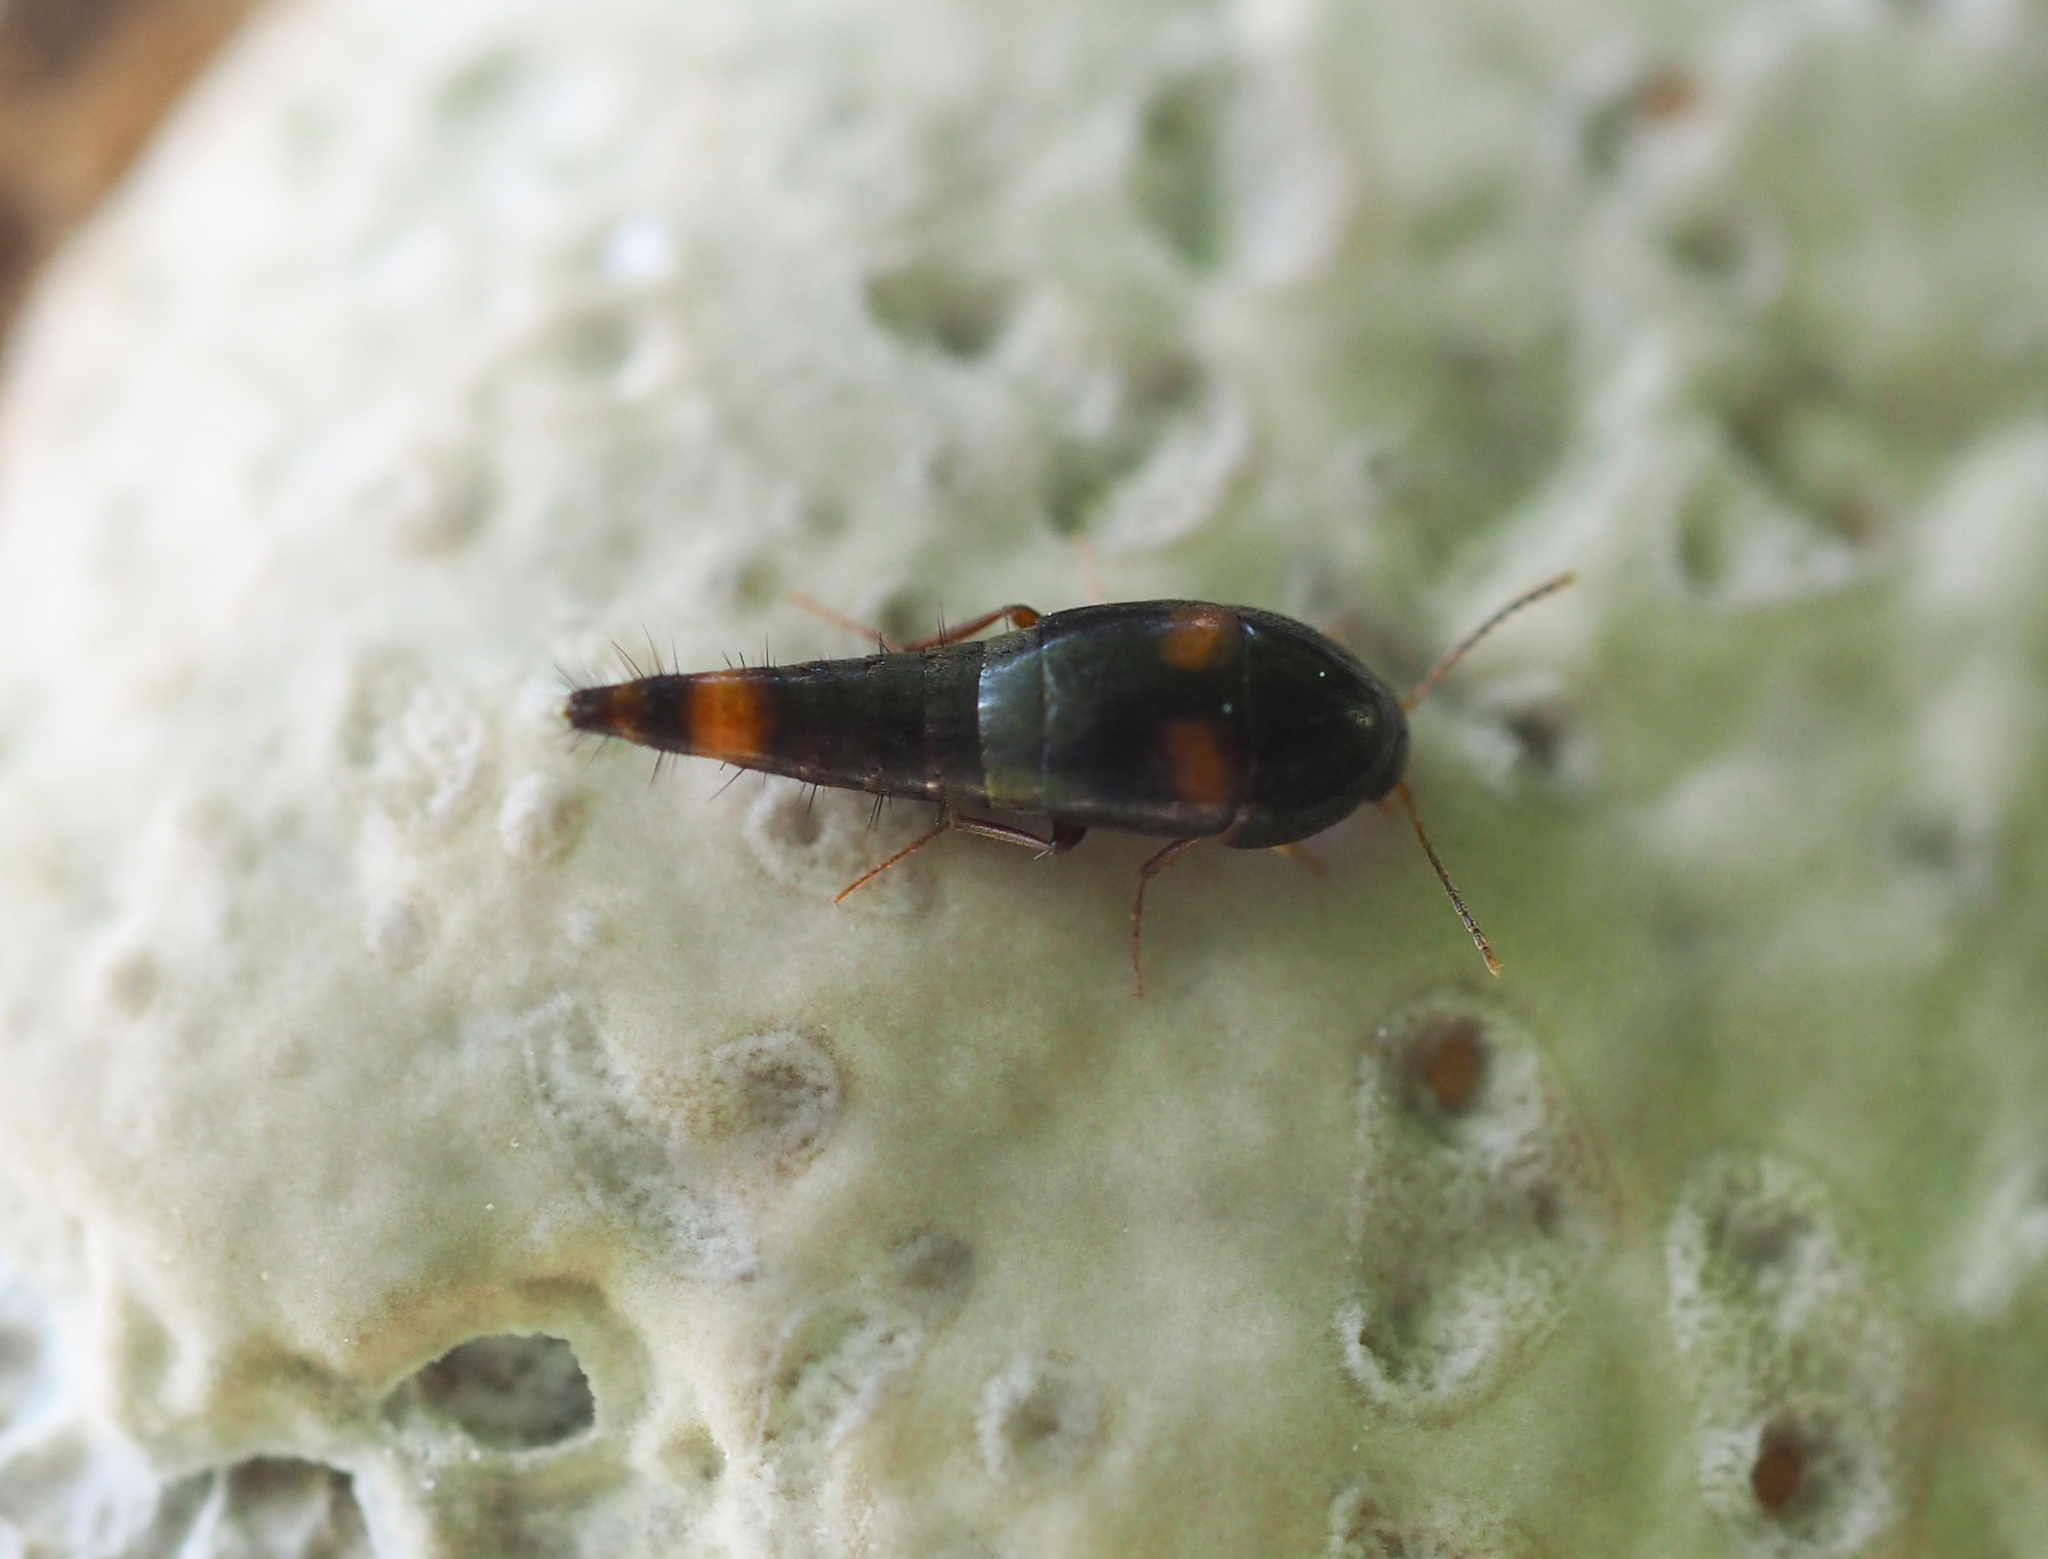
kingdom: Animalia
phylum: Arthropoda
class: Insecta
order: Coleoptera
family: Staphylinidae
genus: Sepedophilus
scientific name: Sepedophilus bipustulatus
